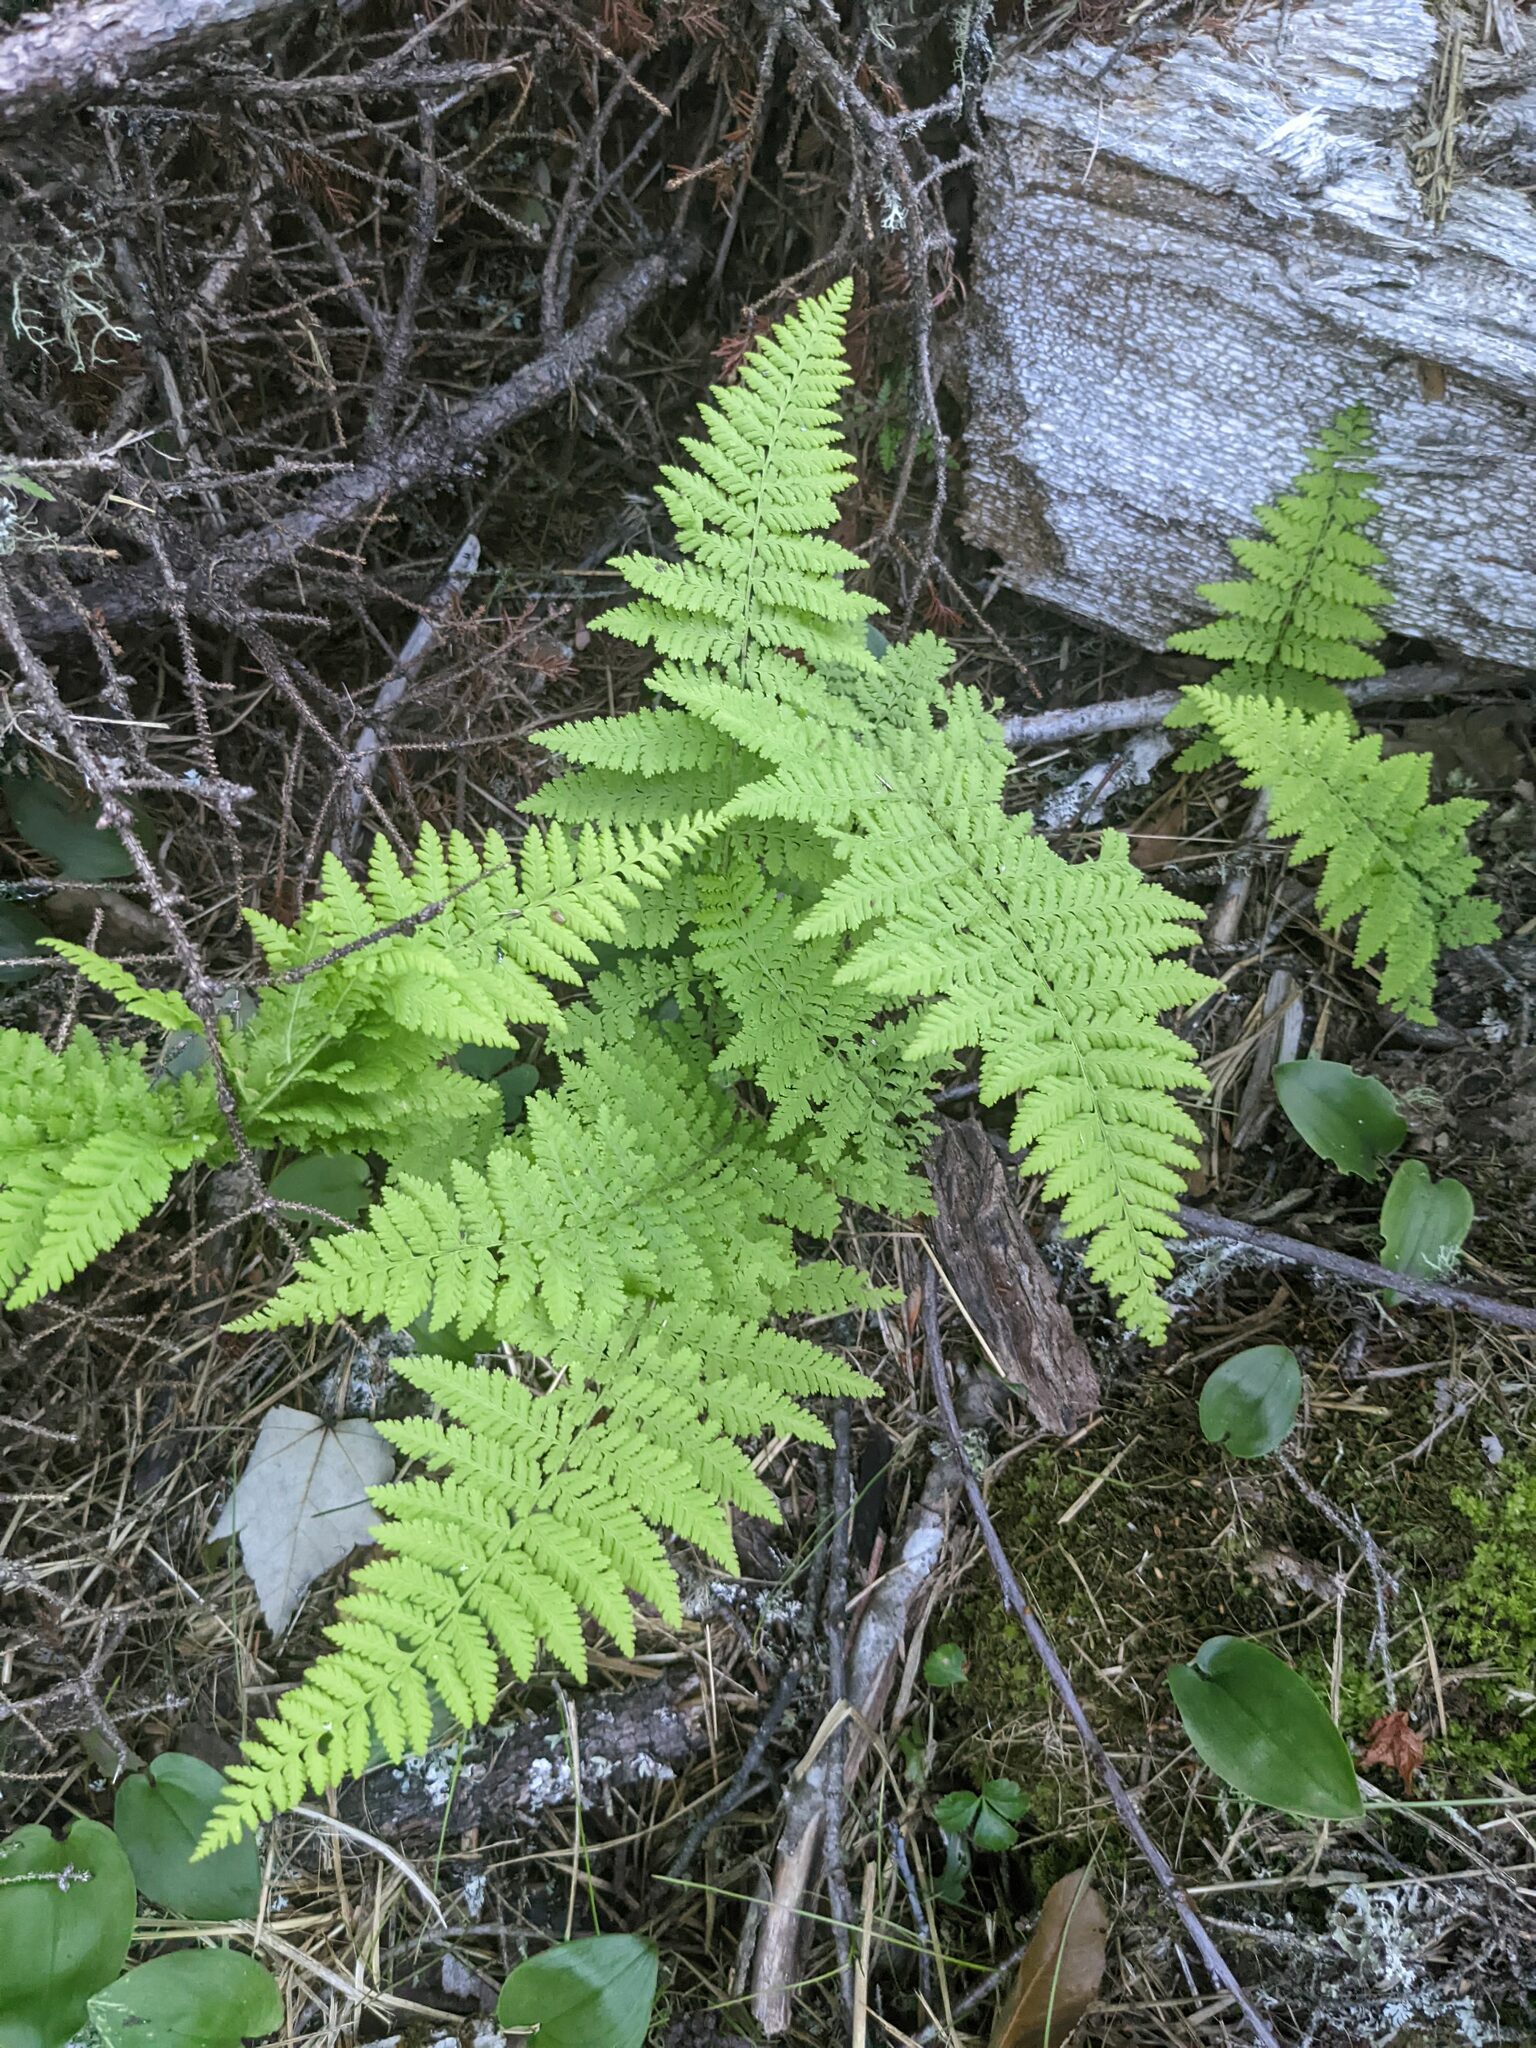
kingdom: Plantae
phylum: Tracheophyta
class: Polypodiopsida
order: Polypodiales
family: Dennstaedtiaceae
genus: Sitobolium
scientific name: Sitobolium punctilobum
